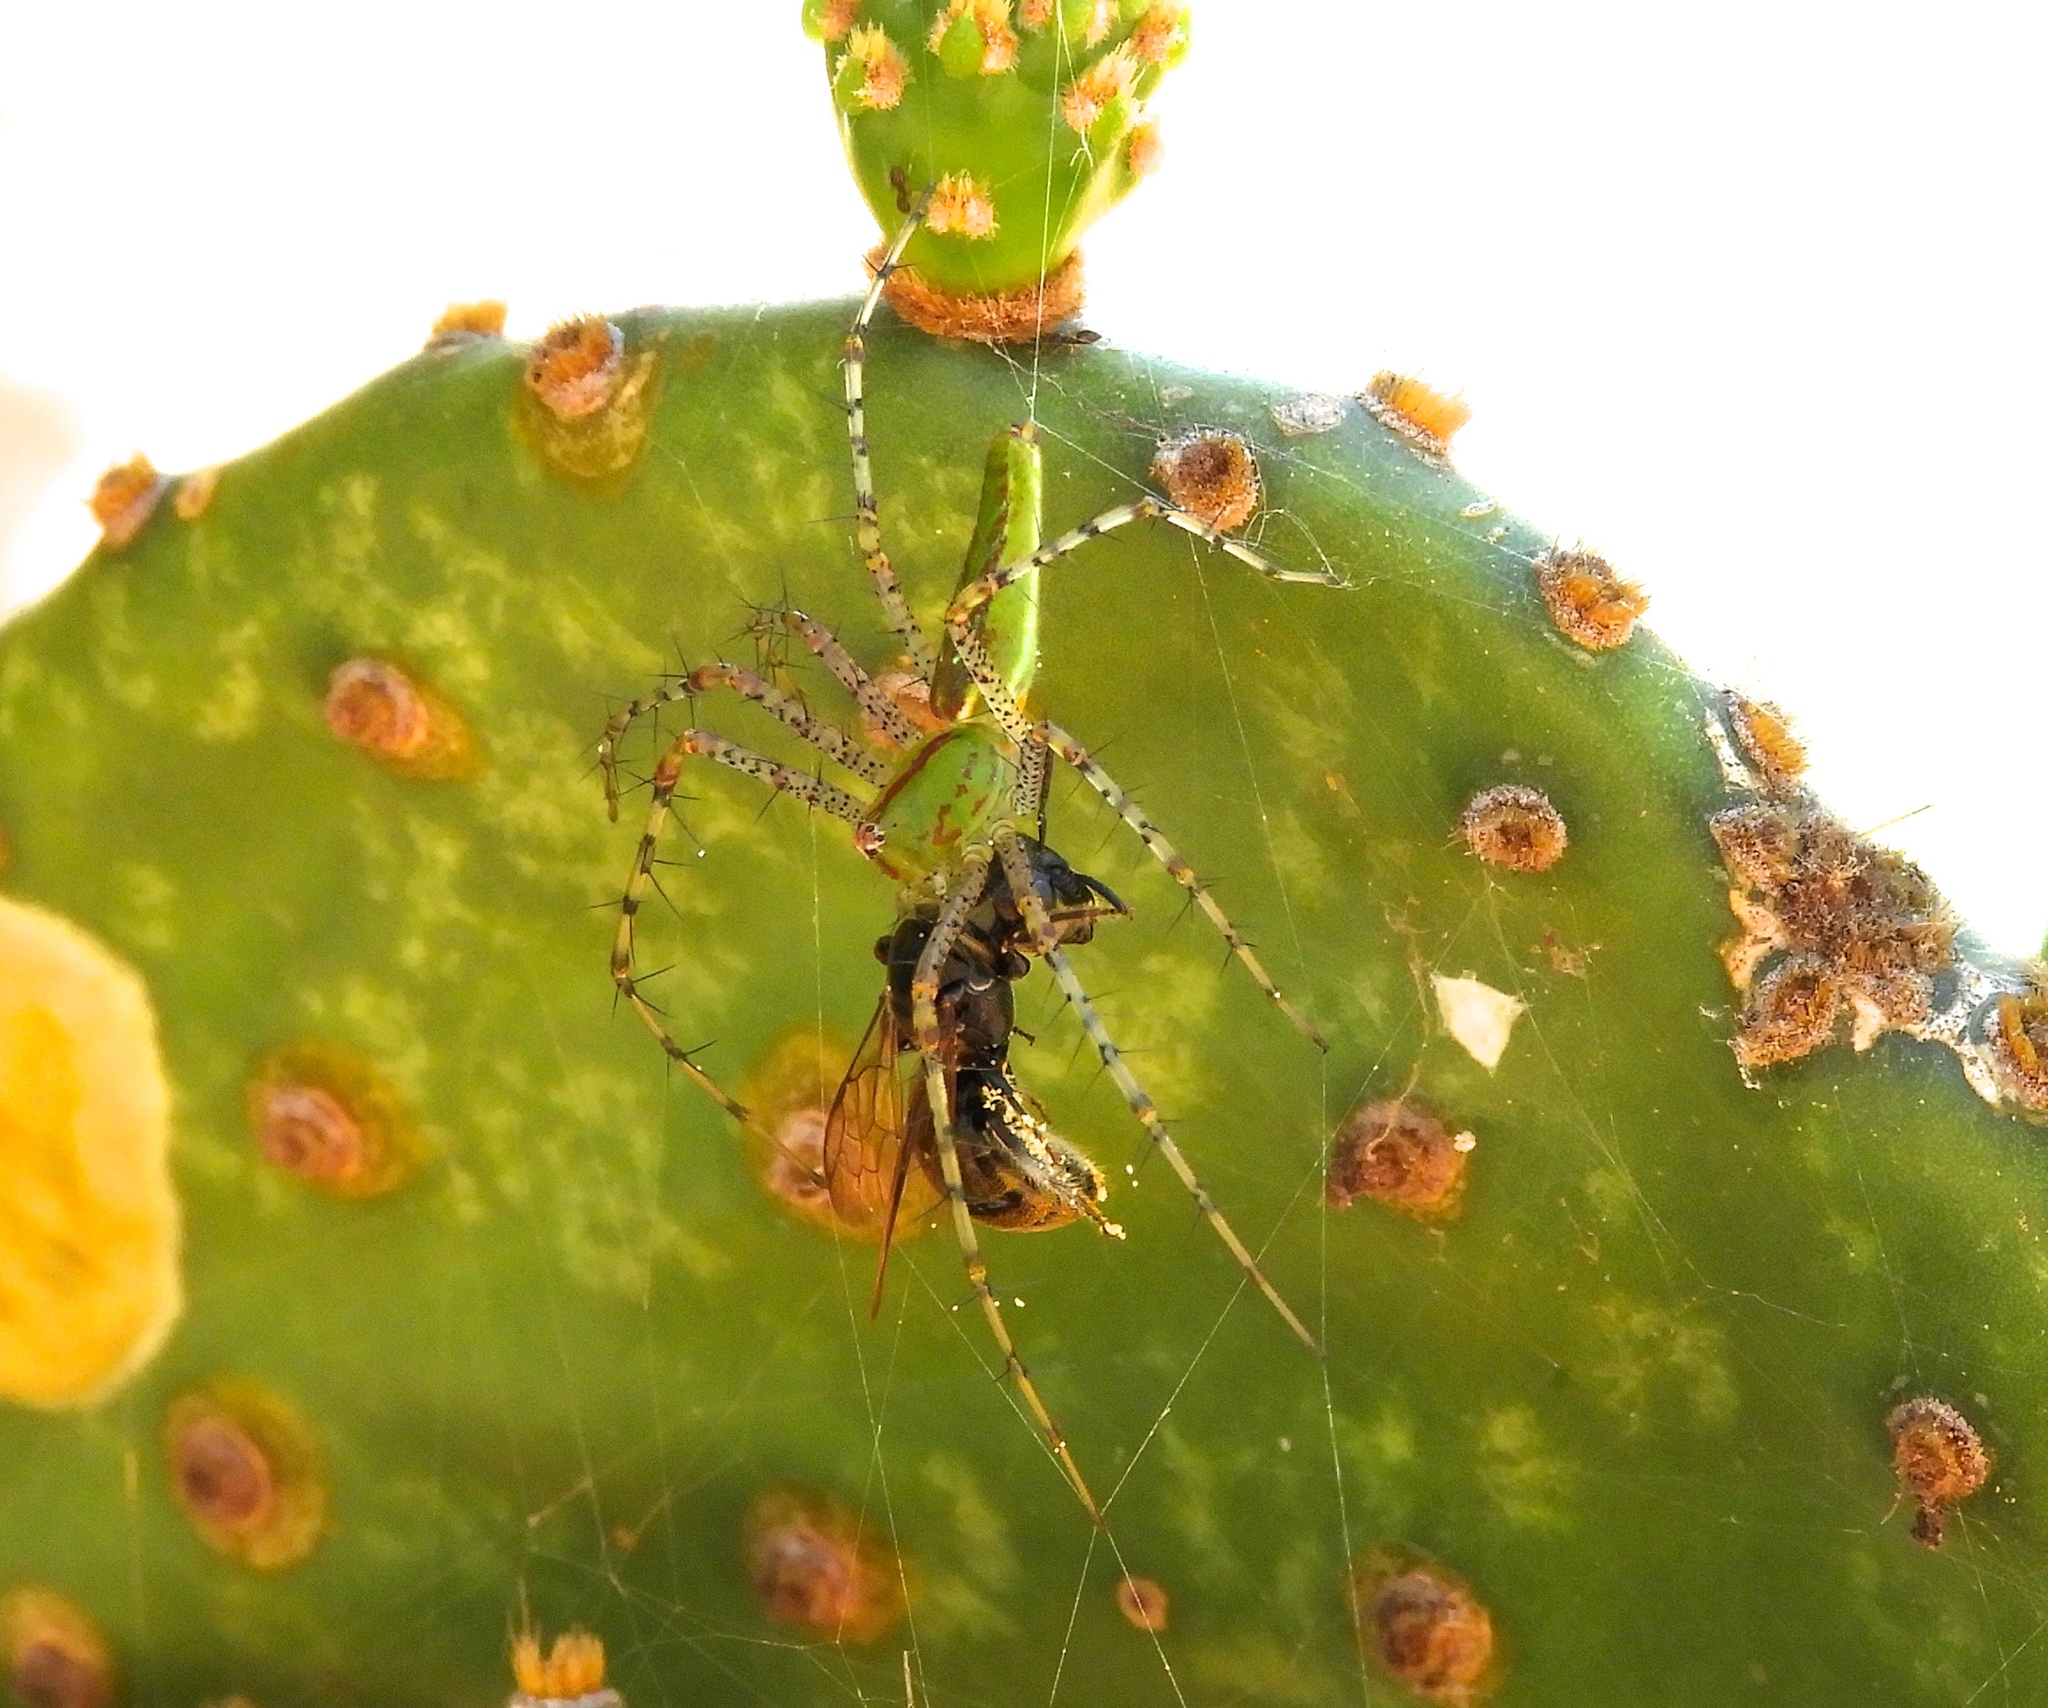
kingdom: Animalia
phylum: Arthropoda
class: Arachnida
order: Araneae
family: Oxyopidae
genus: Peucetia
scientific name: Peucetia
